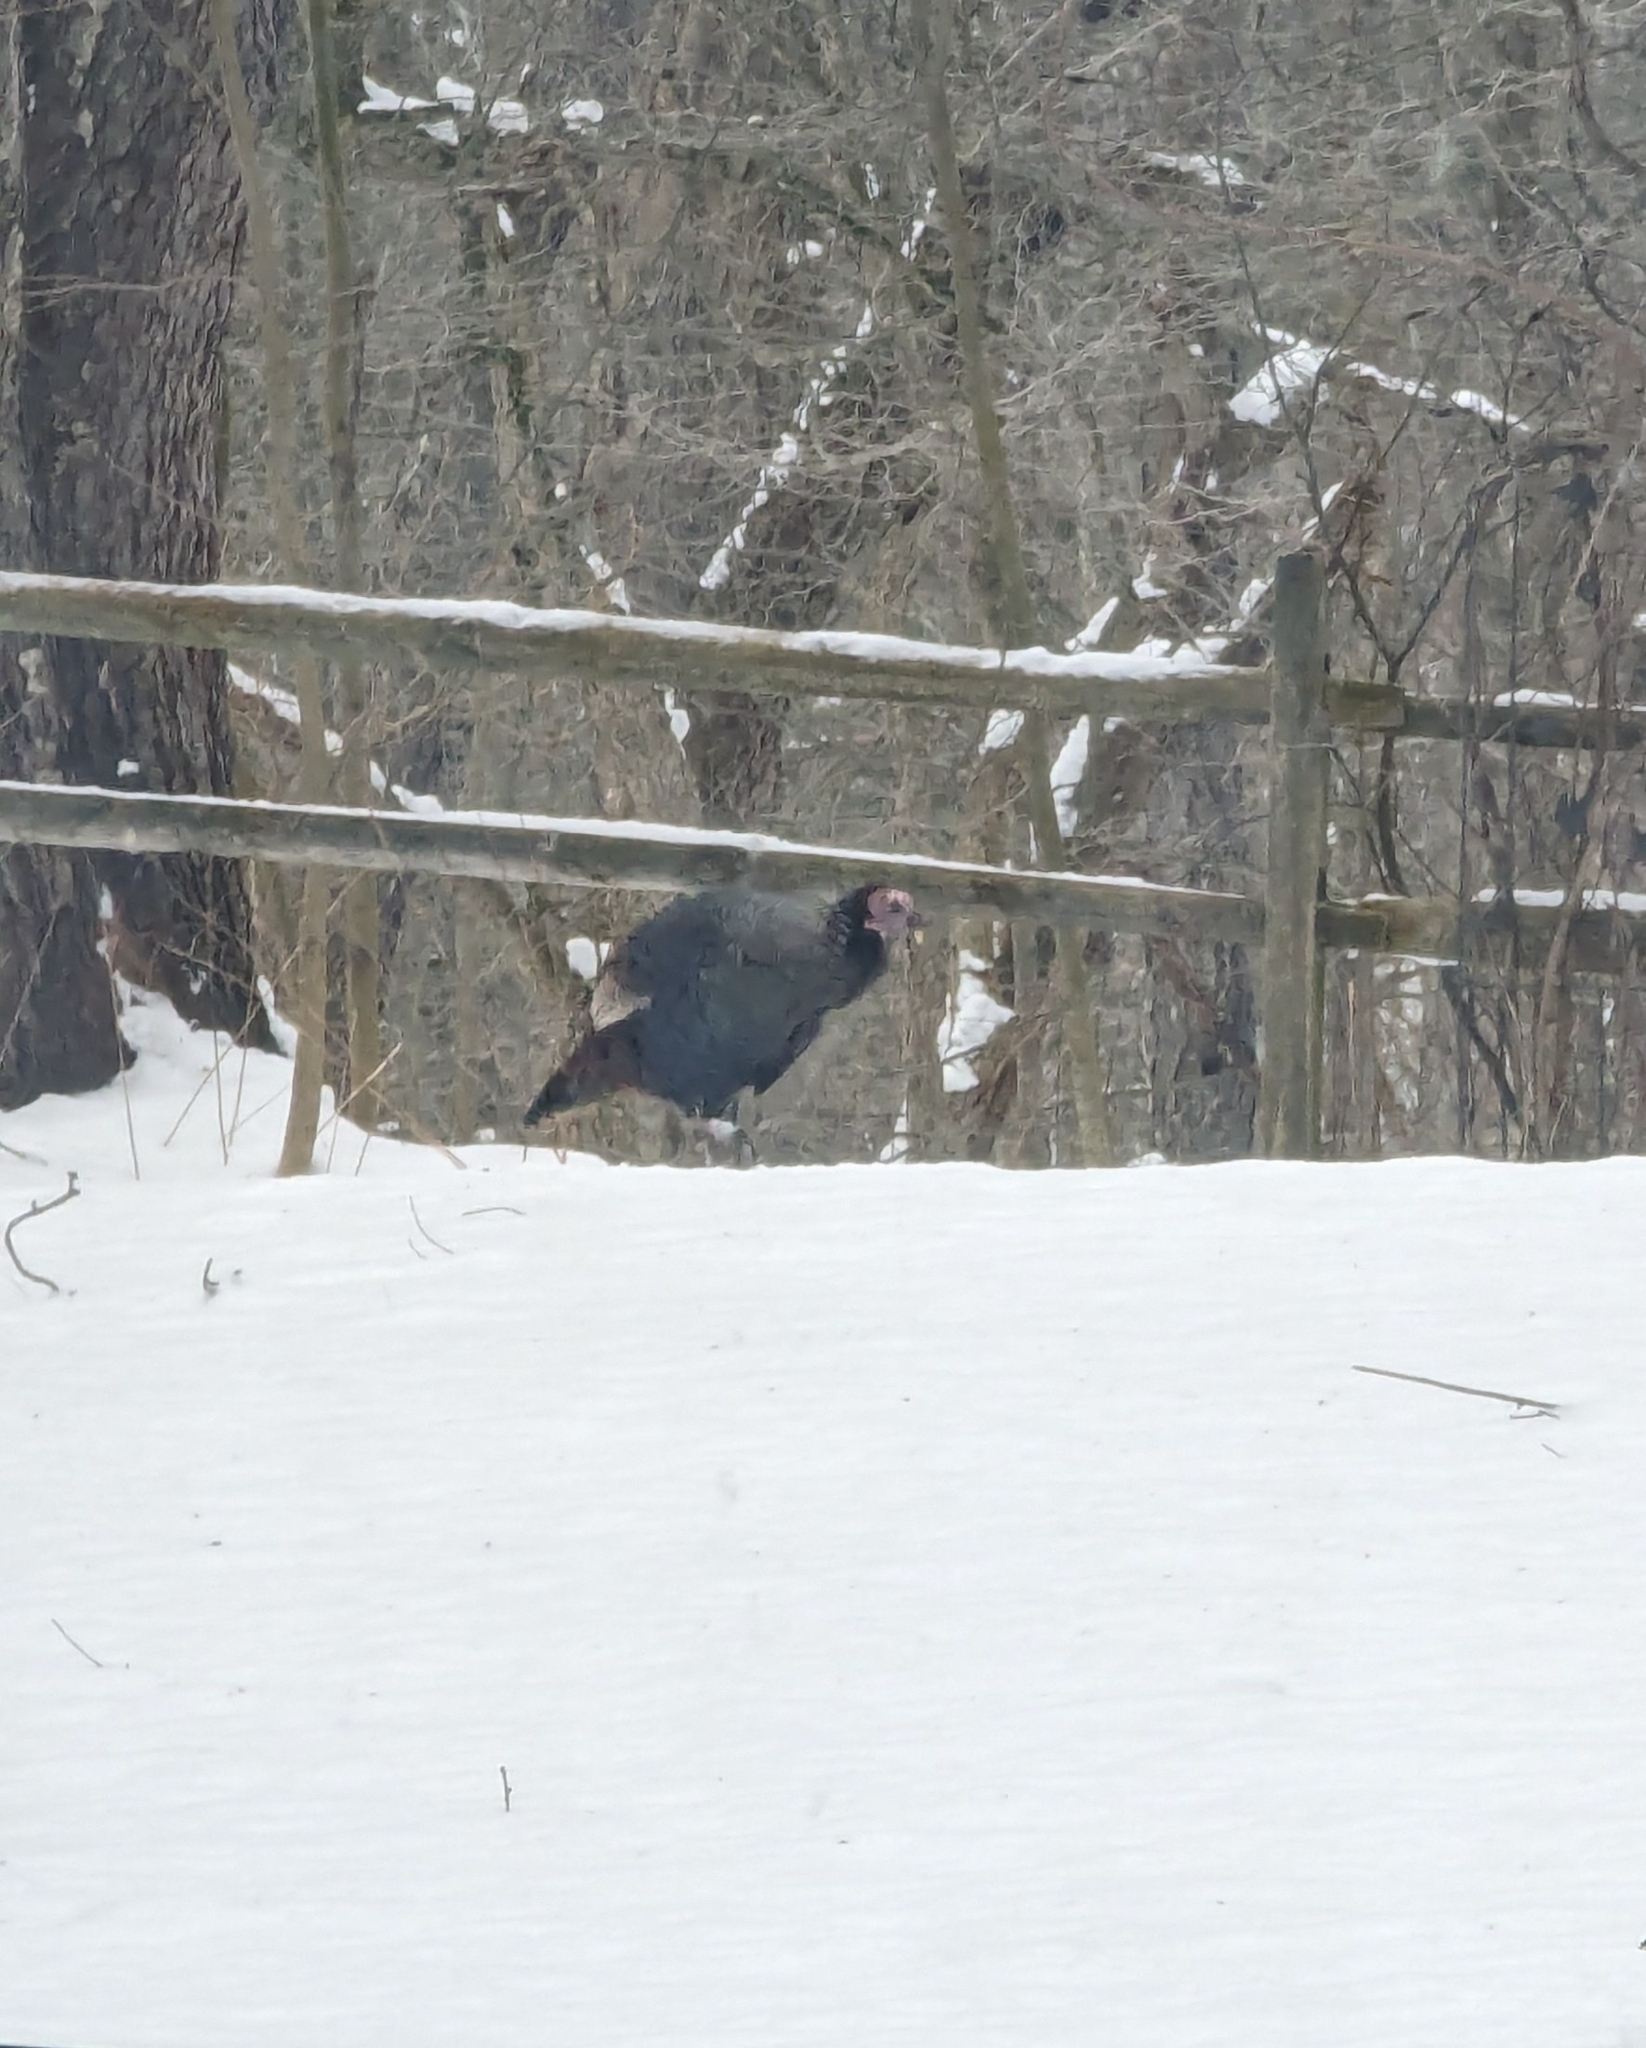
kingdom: Animalia
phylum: Chordata
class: Aves
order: Galliformes
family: Phasianidae
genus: Meleagris
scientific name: Meleagris gallopavo
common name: Wild turkey
